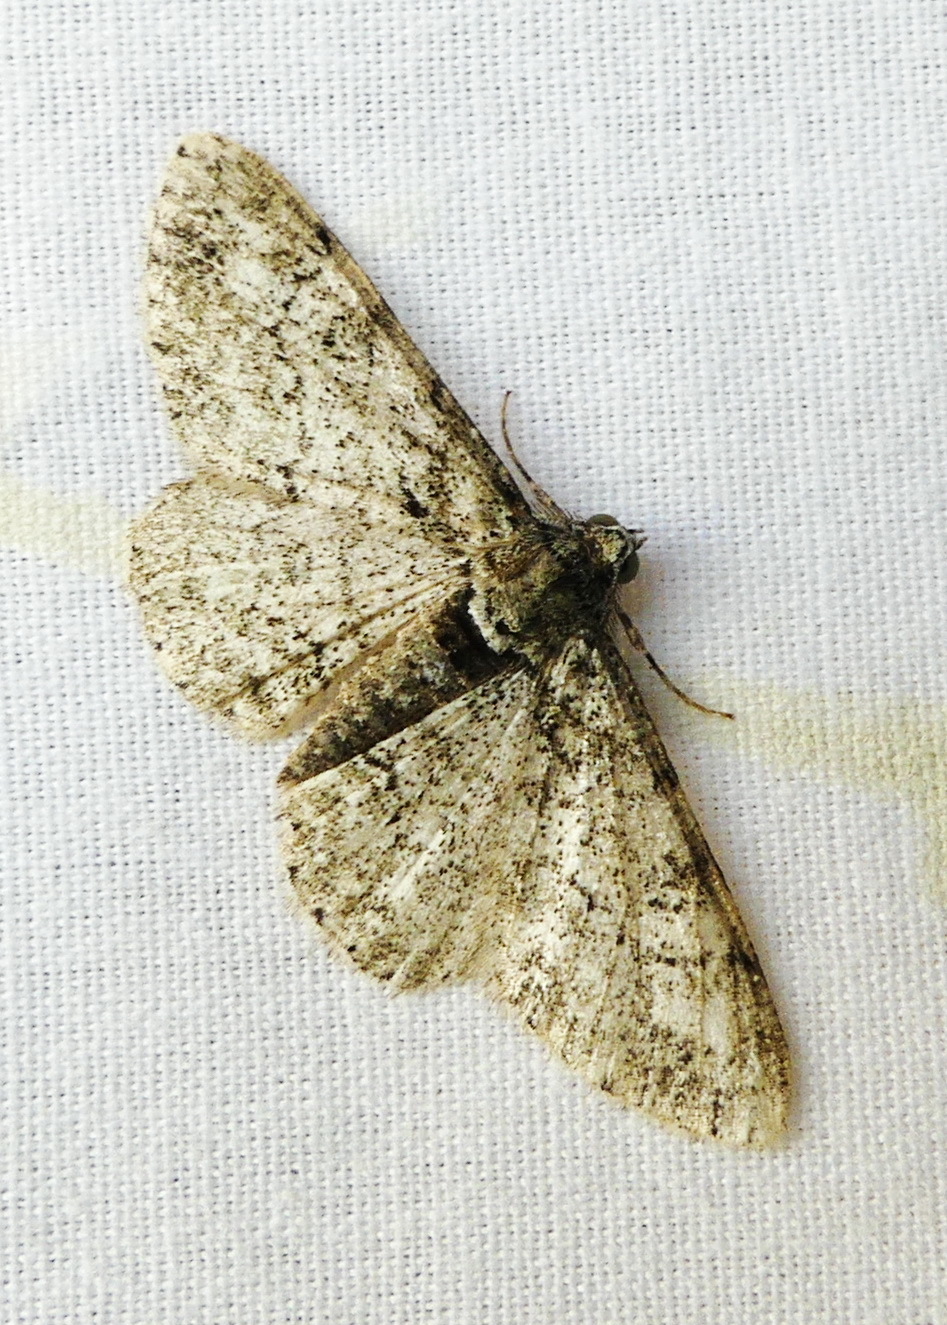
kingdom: Animalia
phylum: Arthropoda
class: Insecta
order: Lepidoptera
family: Geometridae
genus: Cleora
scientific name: Cleora sublunaria
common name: Double-lined gray
